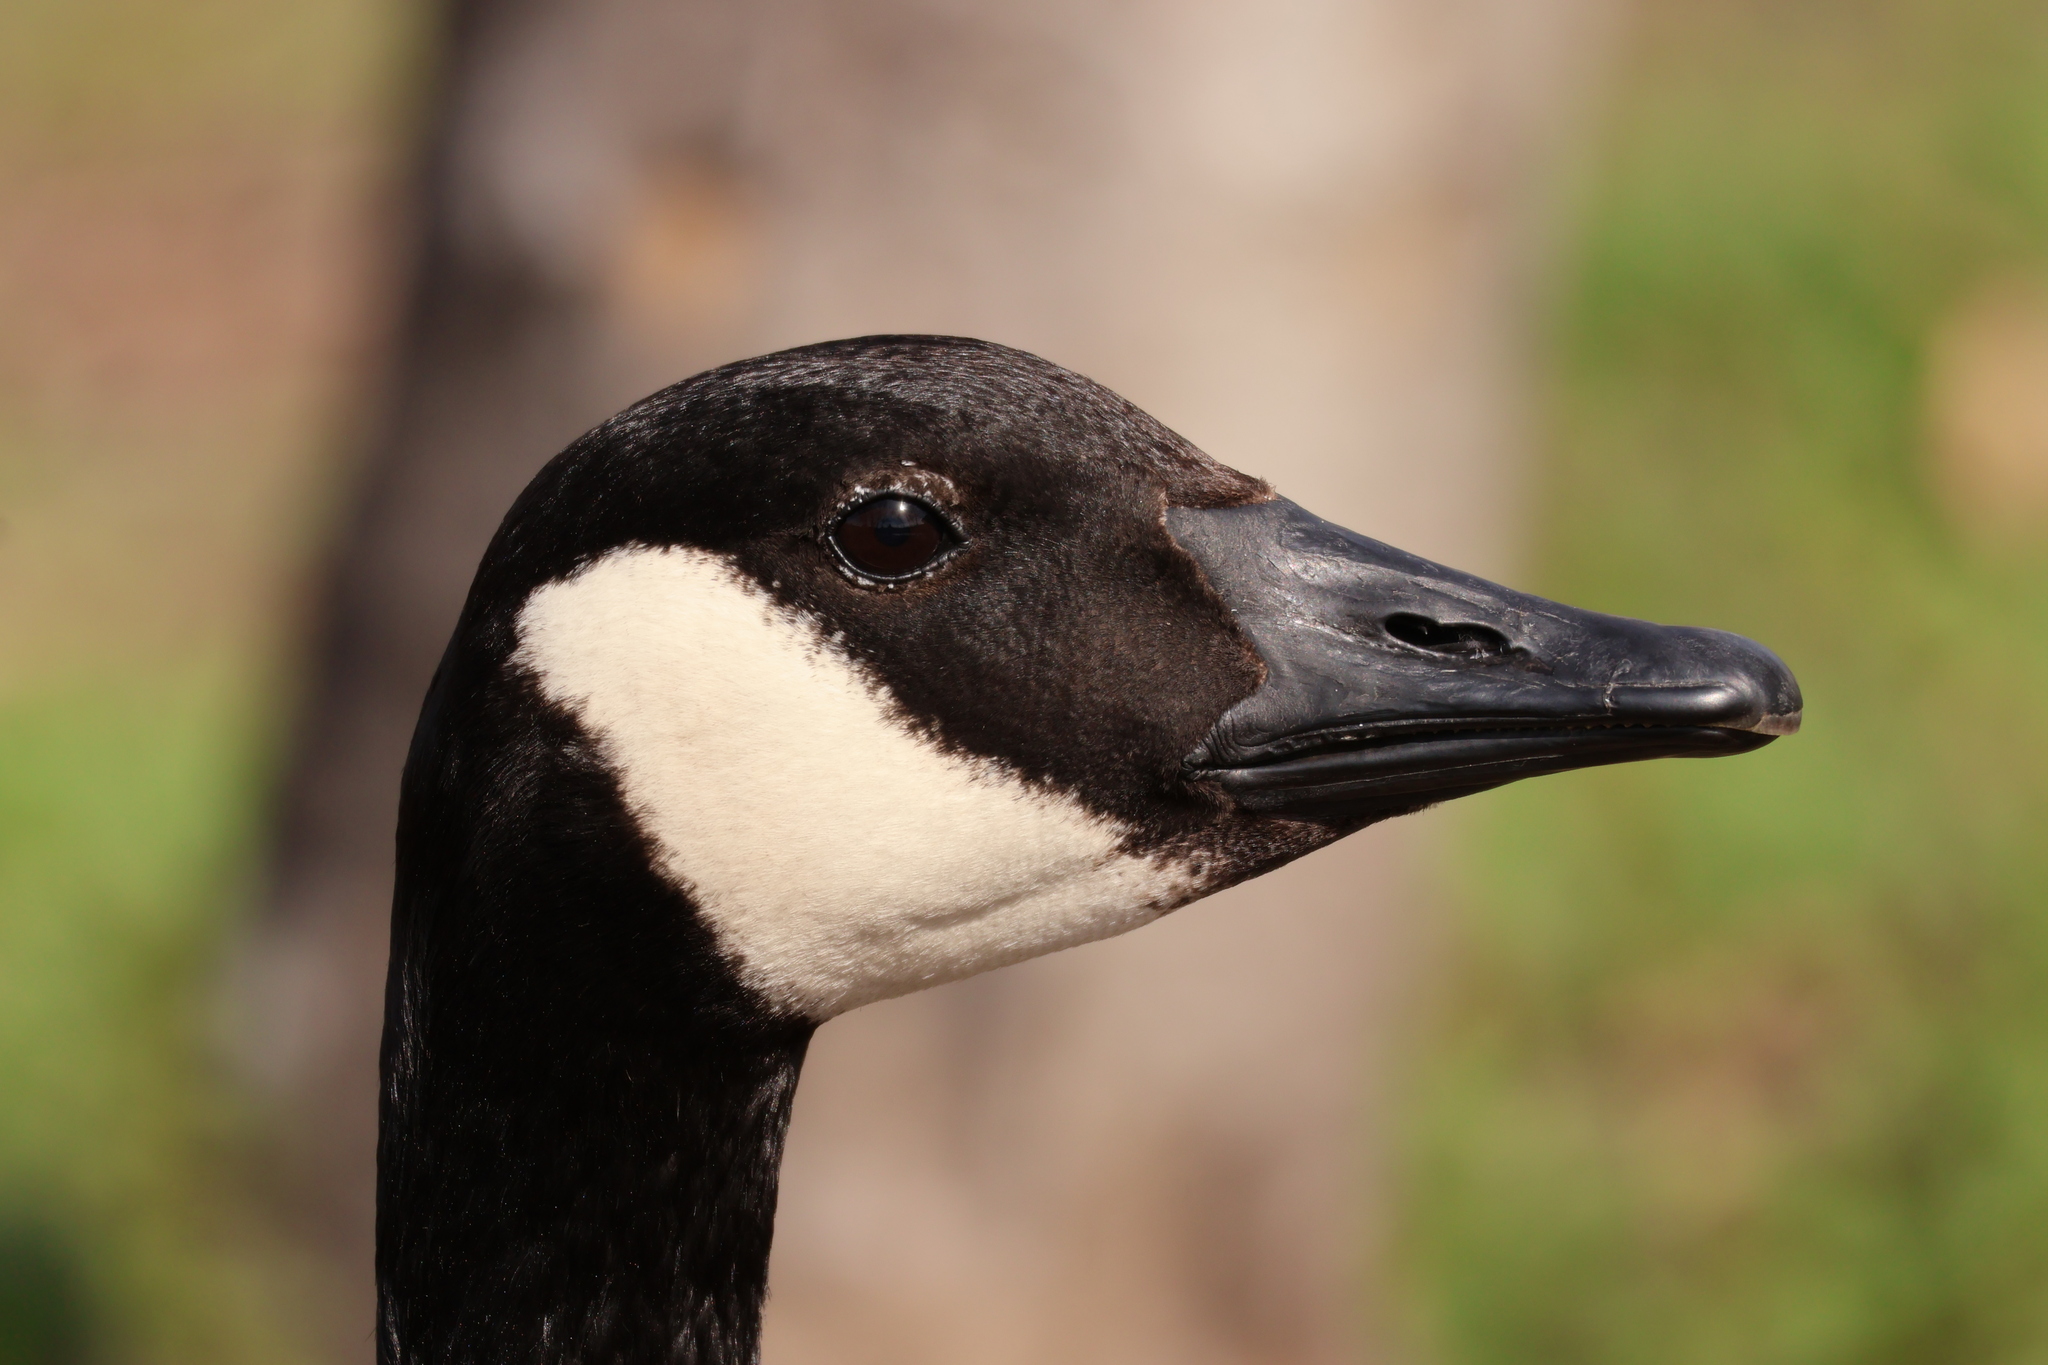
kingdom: Animalia
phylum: Chordata
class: Aves
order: Anseriformes
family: Anatidae
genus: Branta
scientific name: Branta canadensis
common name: Canada goose
